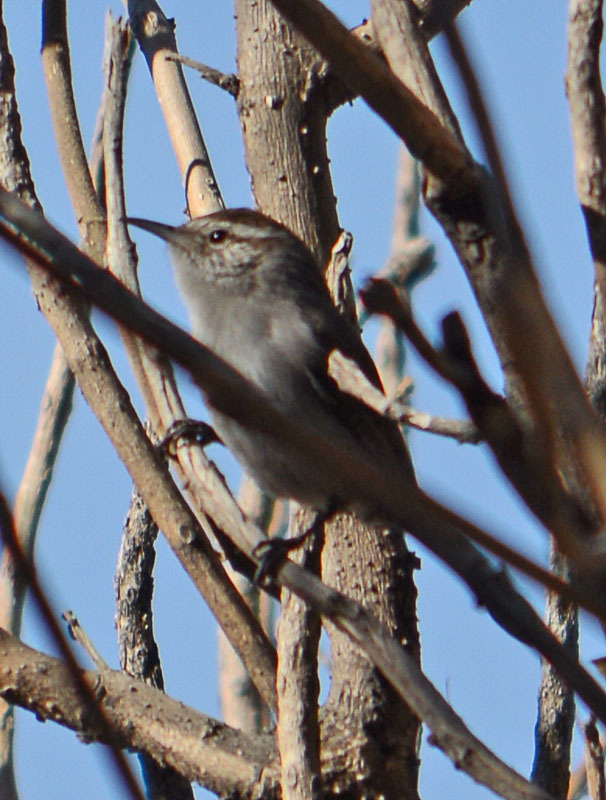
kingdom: Animalia
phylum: Chordata
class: Aves
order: Passeriformes
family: Troglodytidae
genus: Thryomanes
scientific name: Thryomanes bewickii
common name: Bewick's wren
